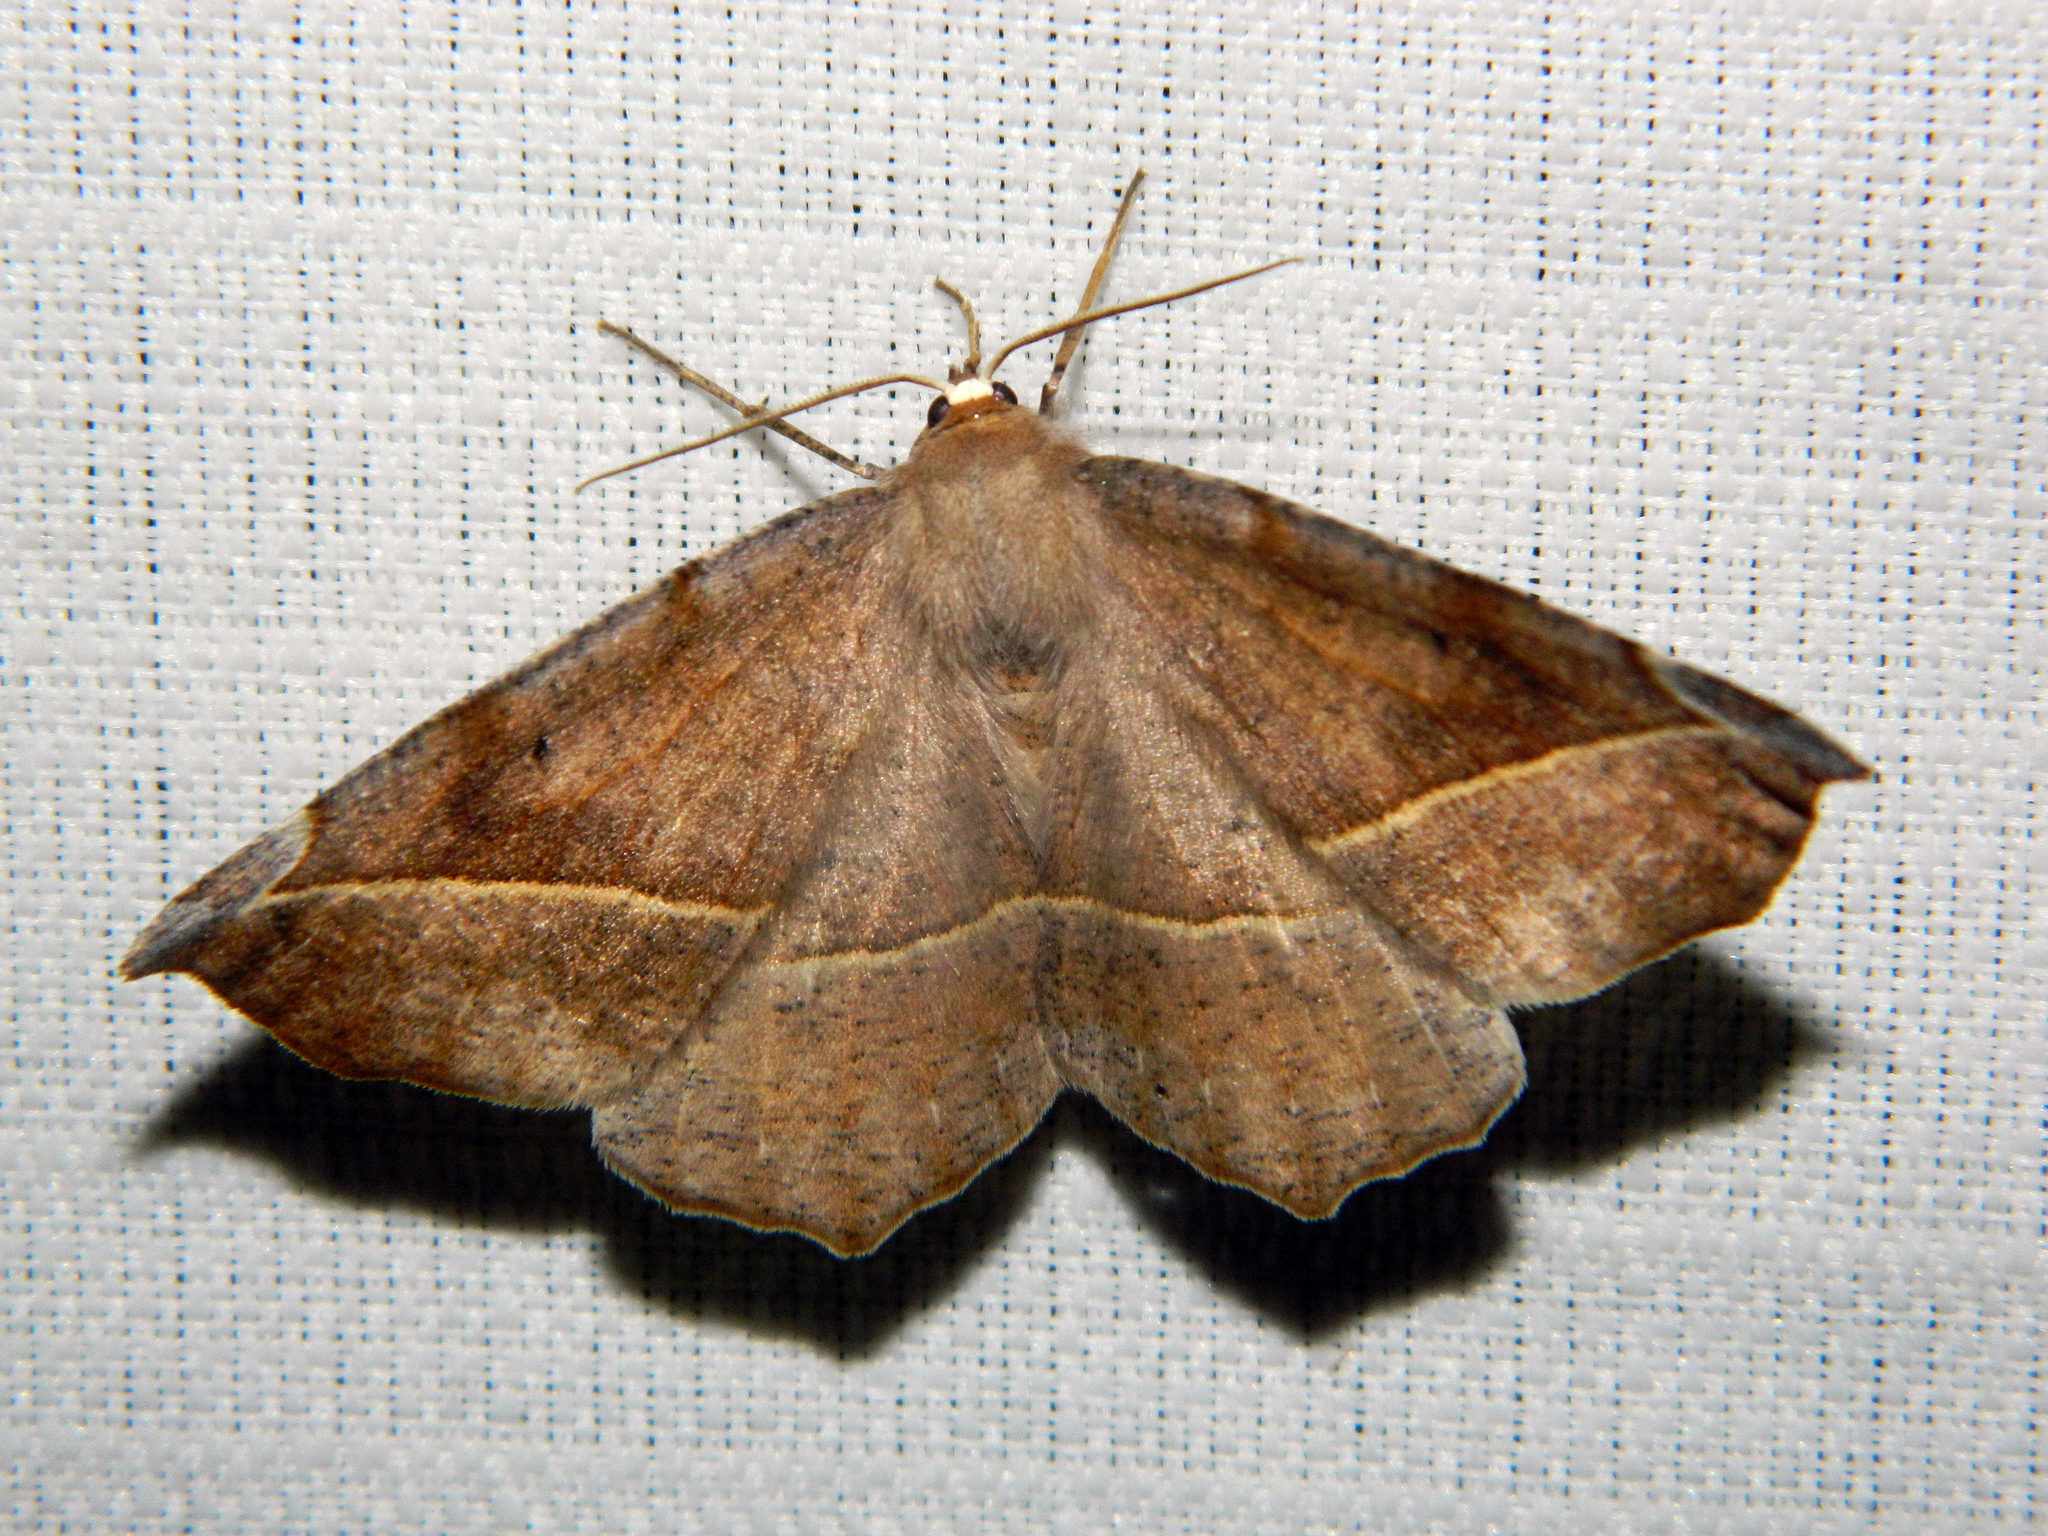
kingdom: Animalia
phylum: Arthropoda
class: Insecta
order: Lepidoptera
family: Geometridae
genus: Eutrapela
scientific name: Eutrapela clemataria
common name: Curved-toothed geometer
